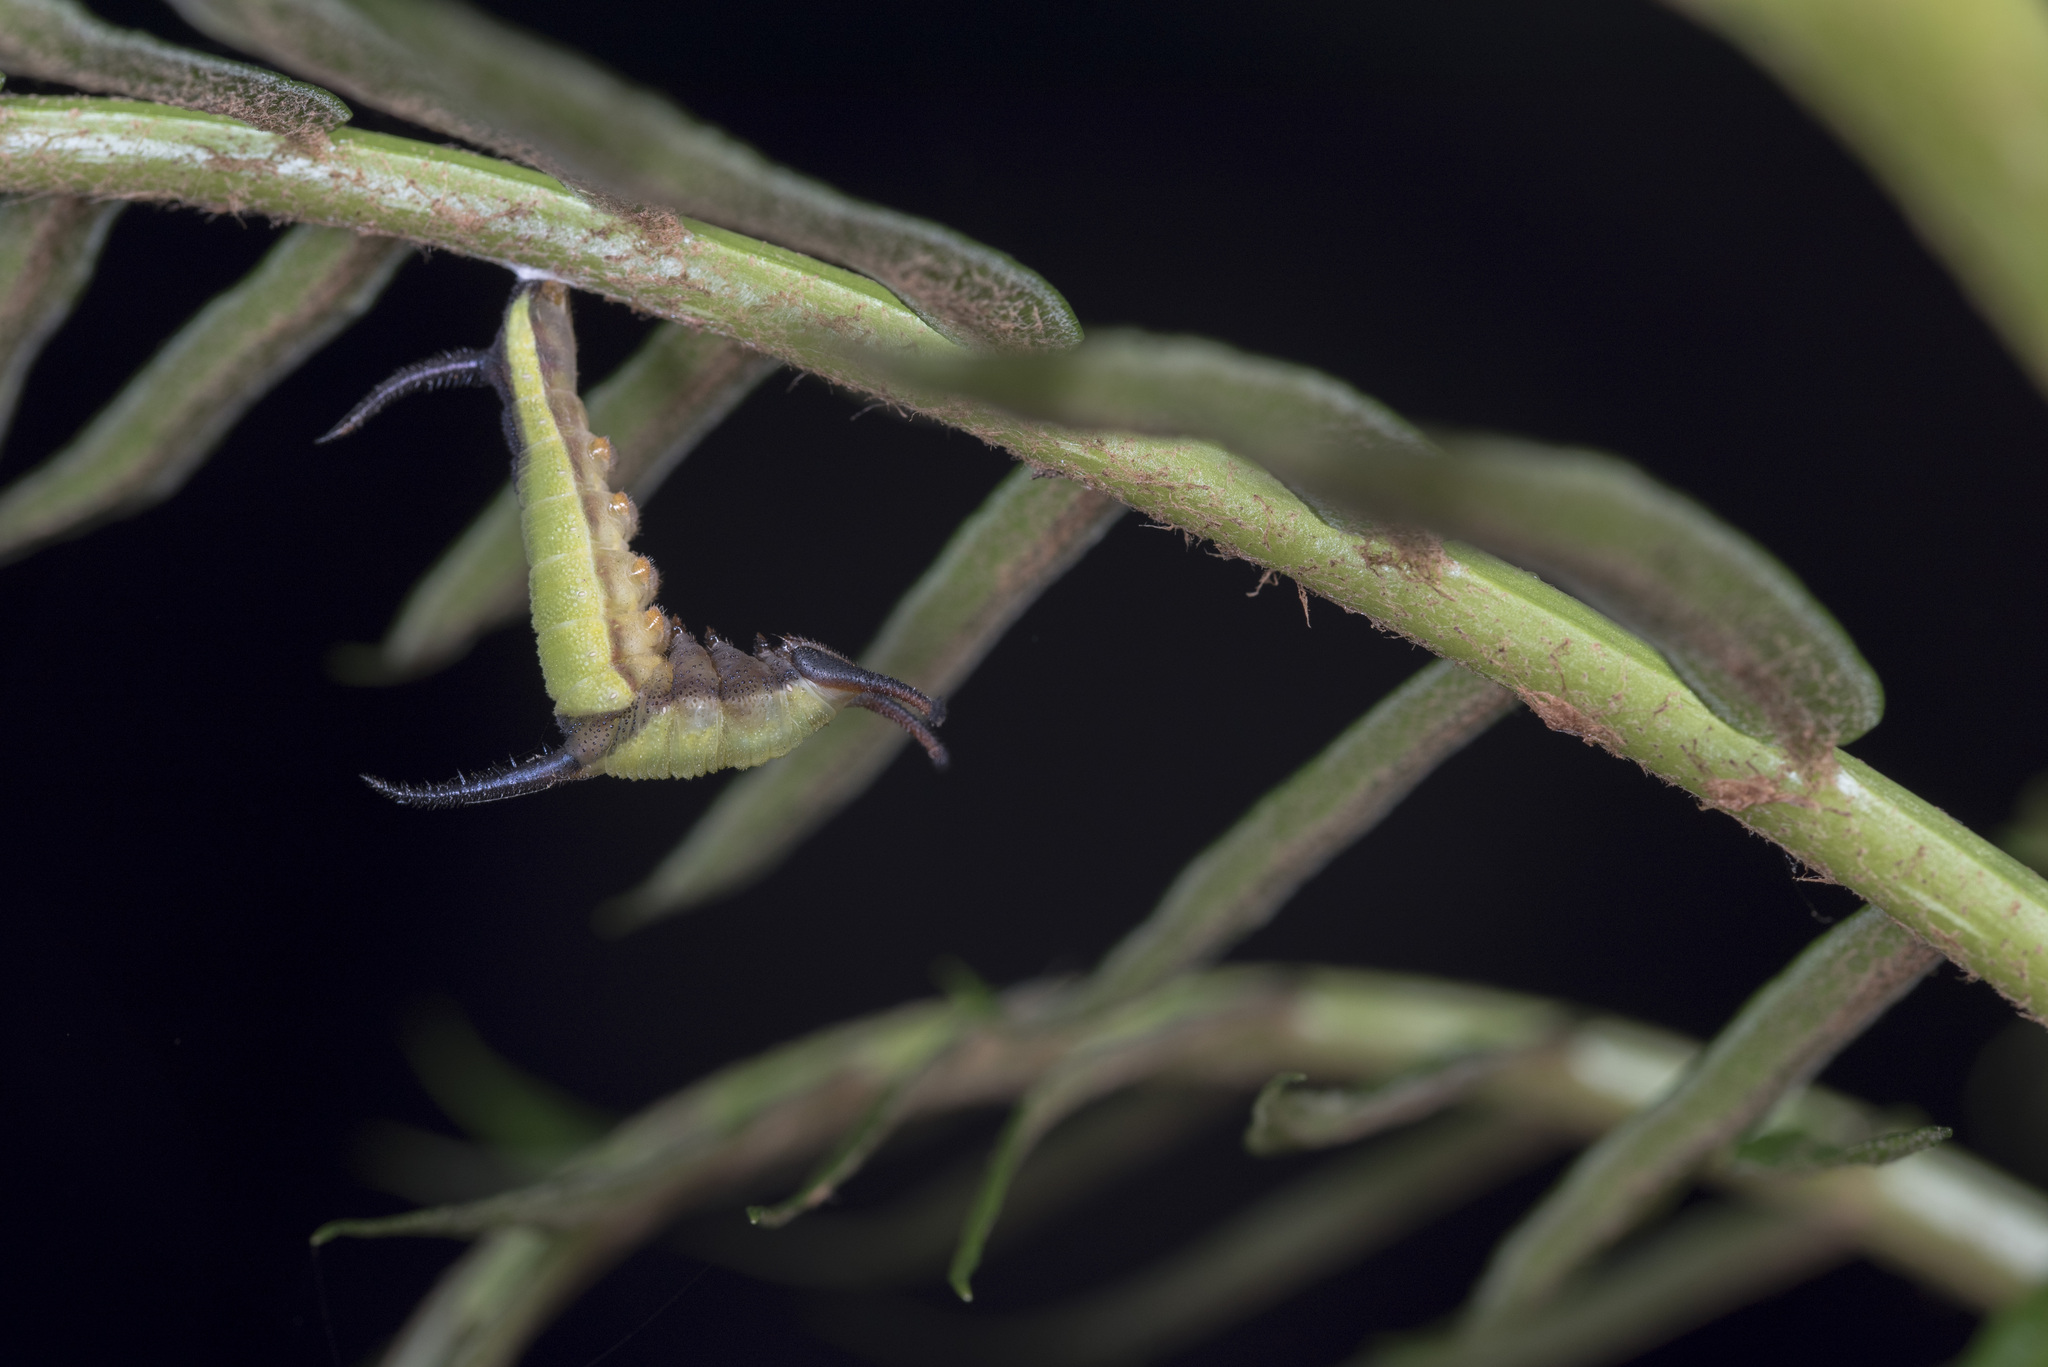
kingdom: Animalia
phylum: Arthropoda
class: Insecta
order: Lepidoptera
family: Nymphalidae
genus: Cyrestis
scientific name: Cyrestis thyodamas
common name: Common mapwing
